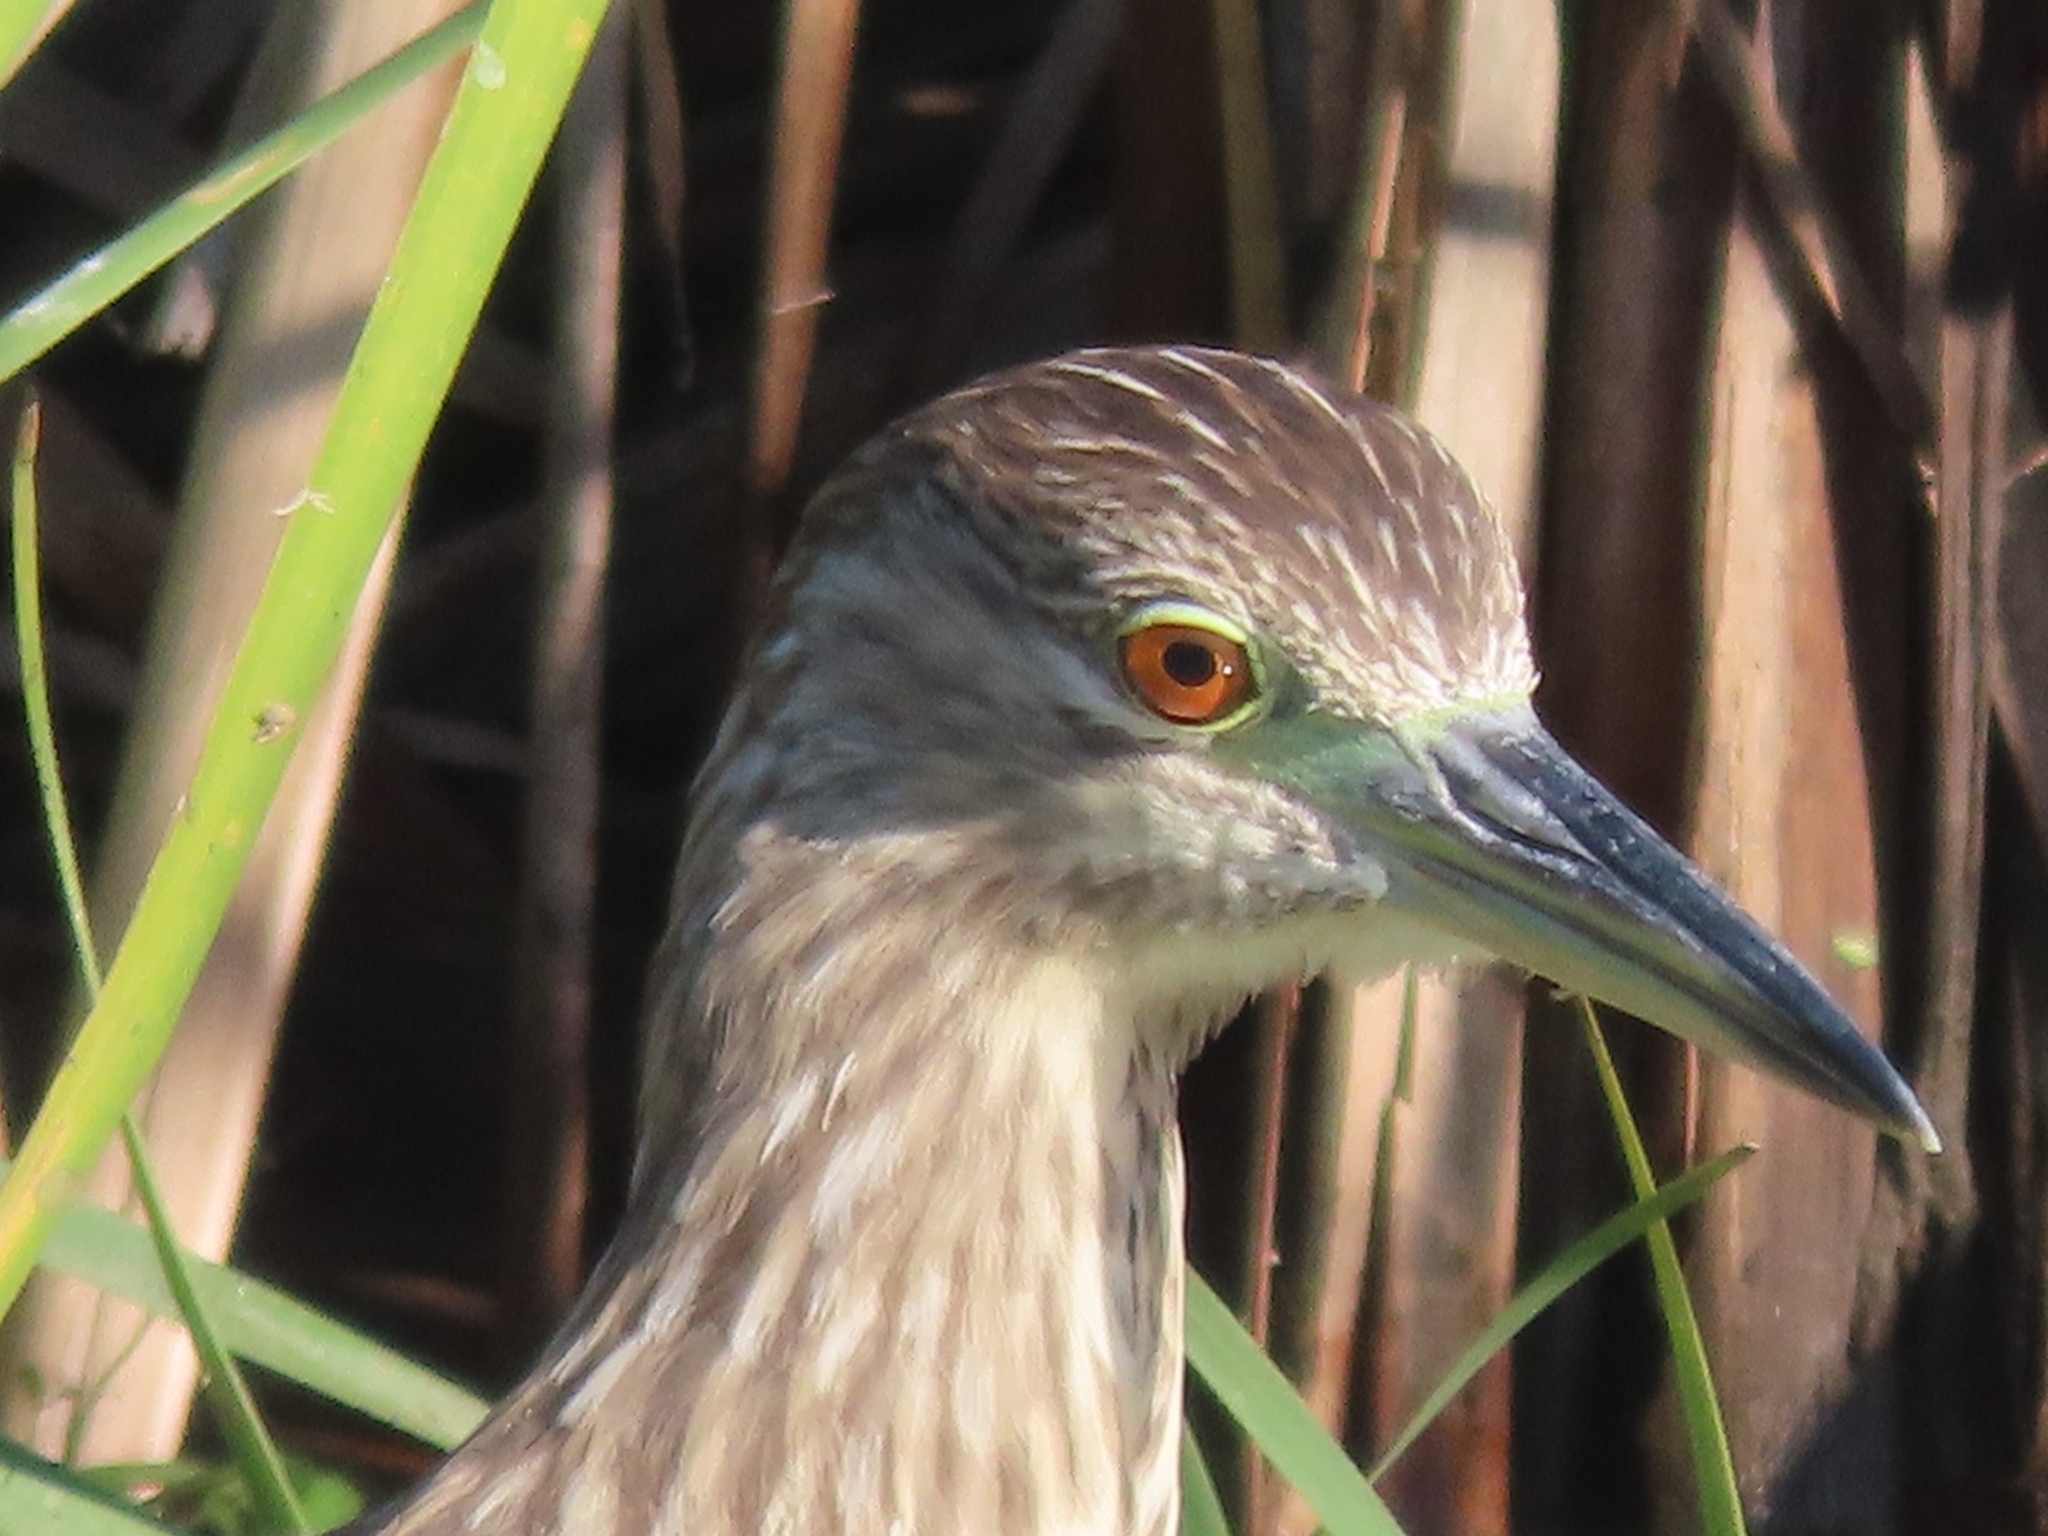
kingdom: Animalia
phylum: Chordata
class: Aves
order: Pelecaniformes
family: Ardeidae
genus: Nycticorax
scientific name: Nycticorax nycticorax
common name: Black-crowned night heron
